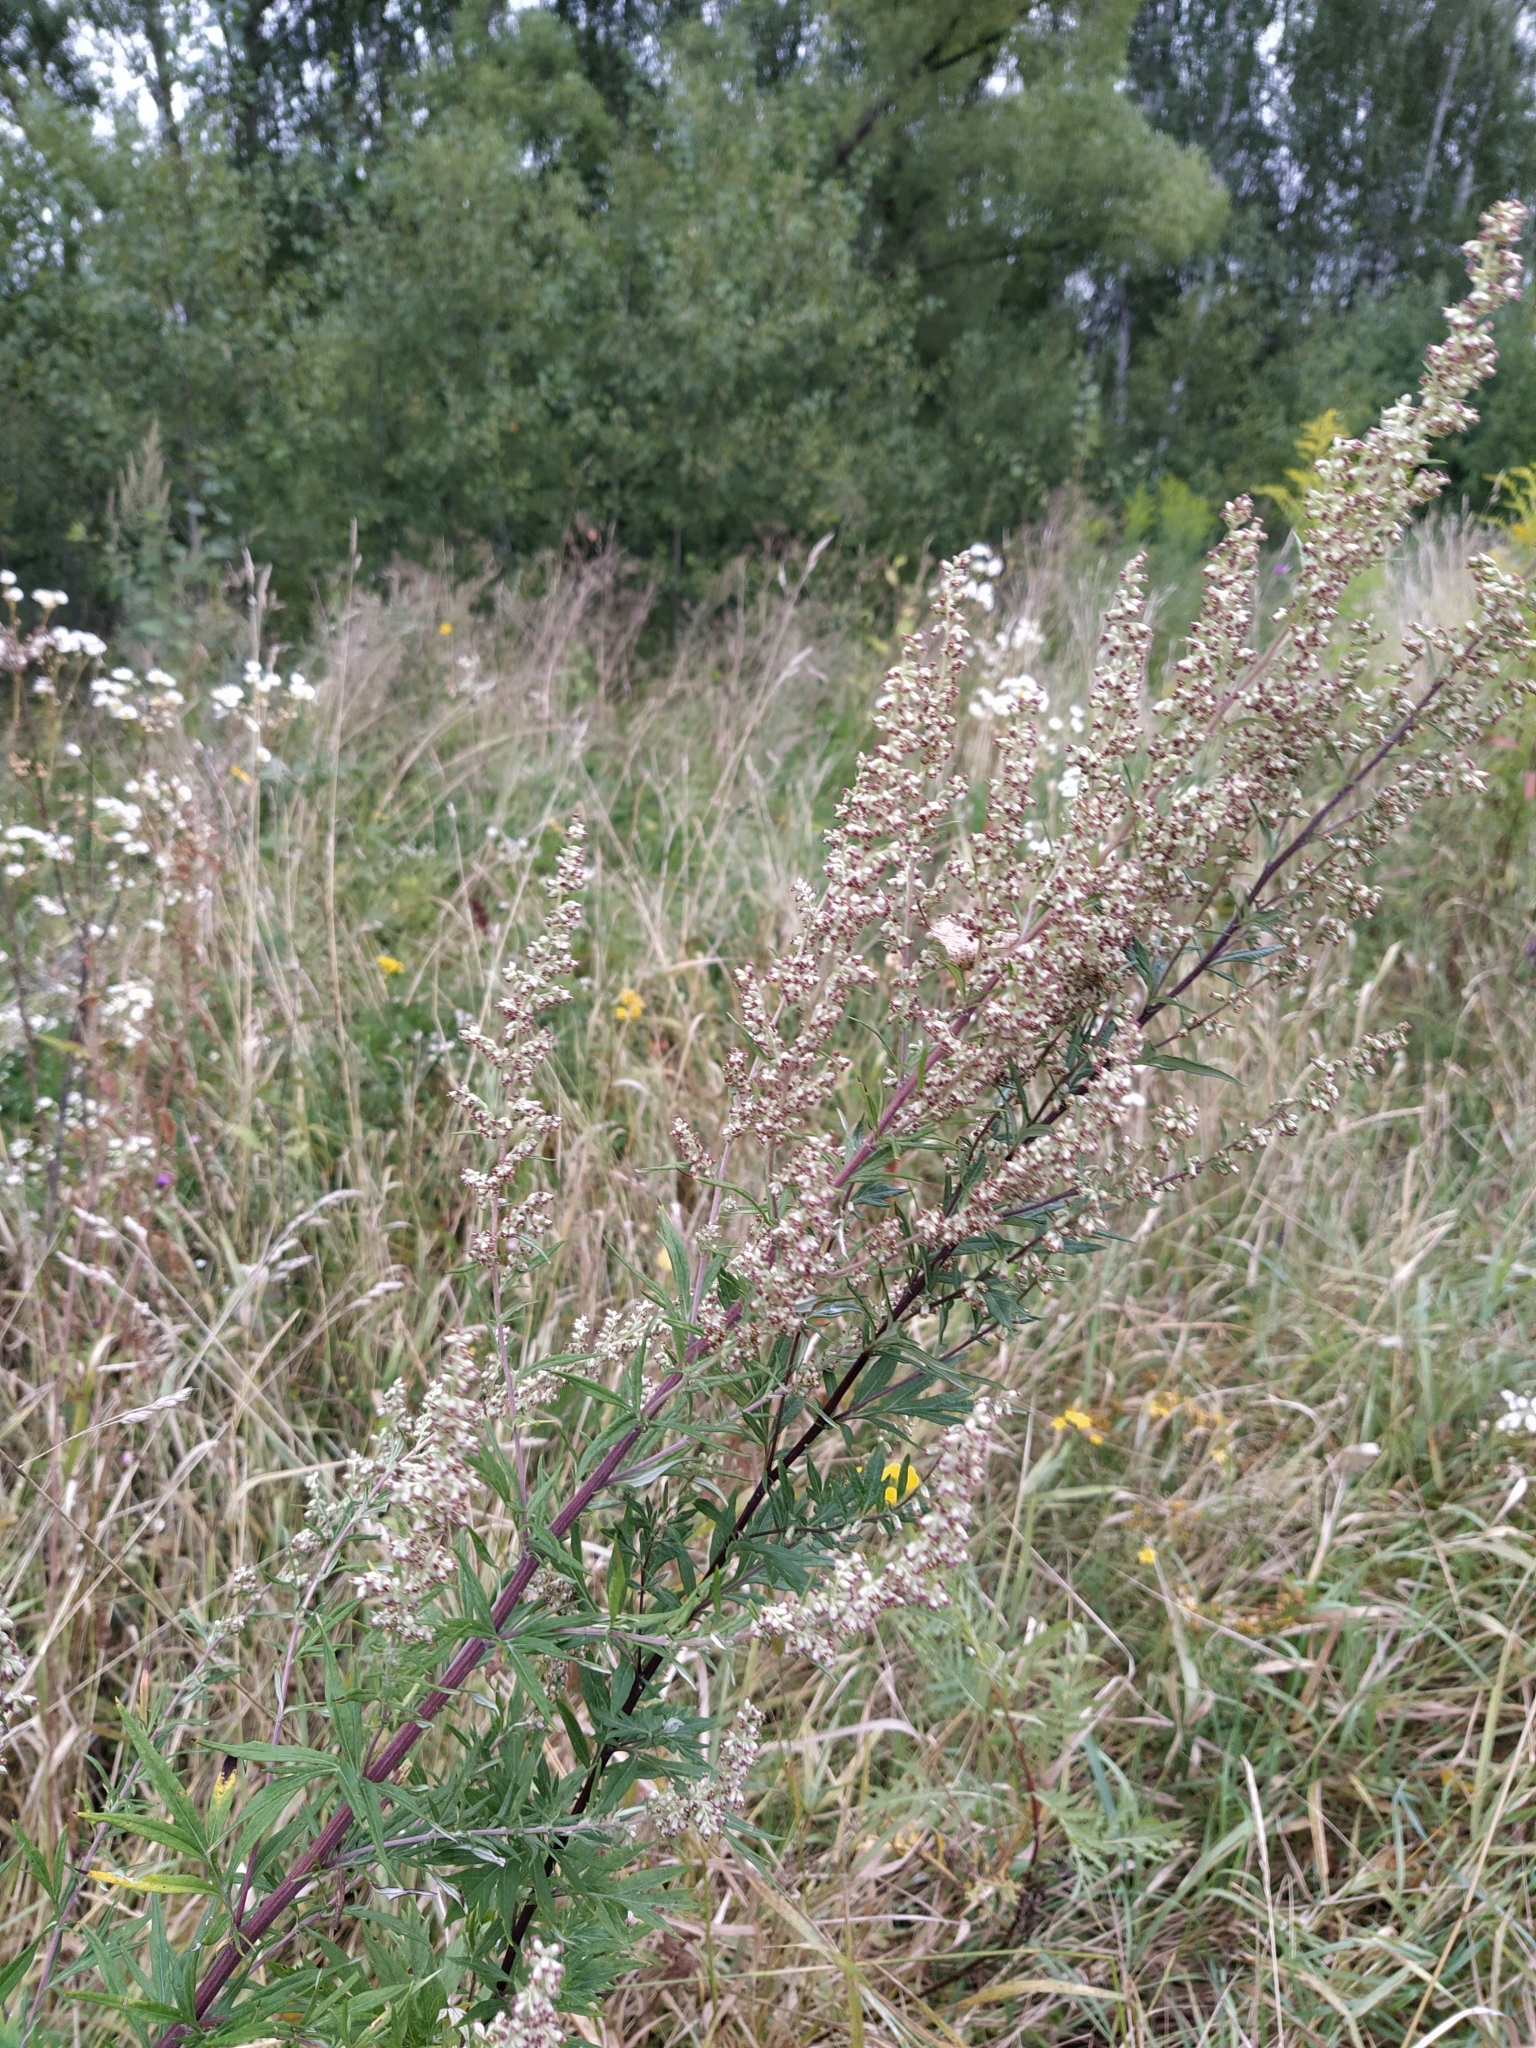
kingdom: Plantae
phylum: Tracheophyta
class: Magnoliopsida
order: Asterales
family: Asteraceae
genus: Artemisia
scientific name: Artemisia vulgaris
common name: Mugwort
